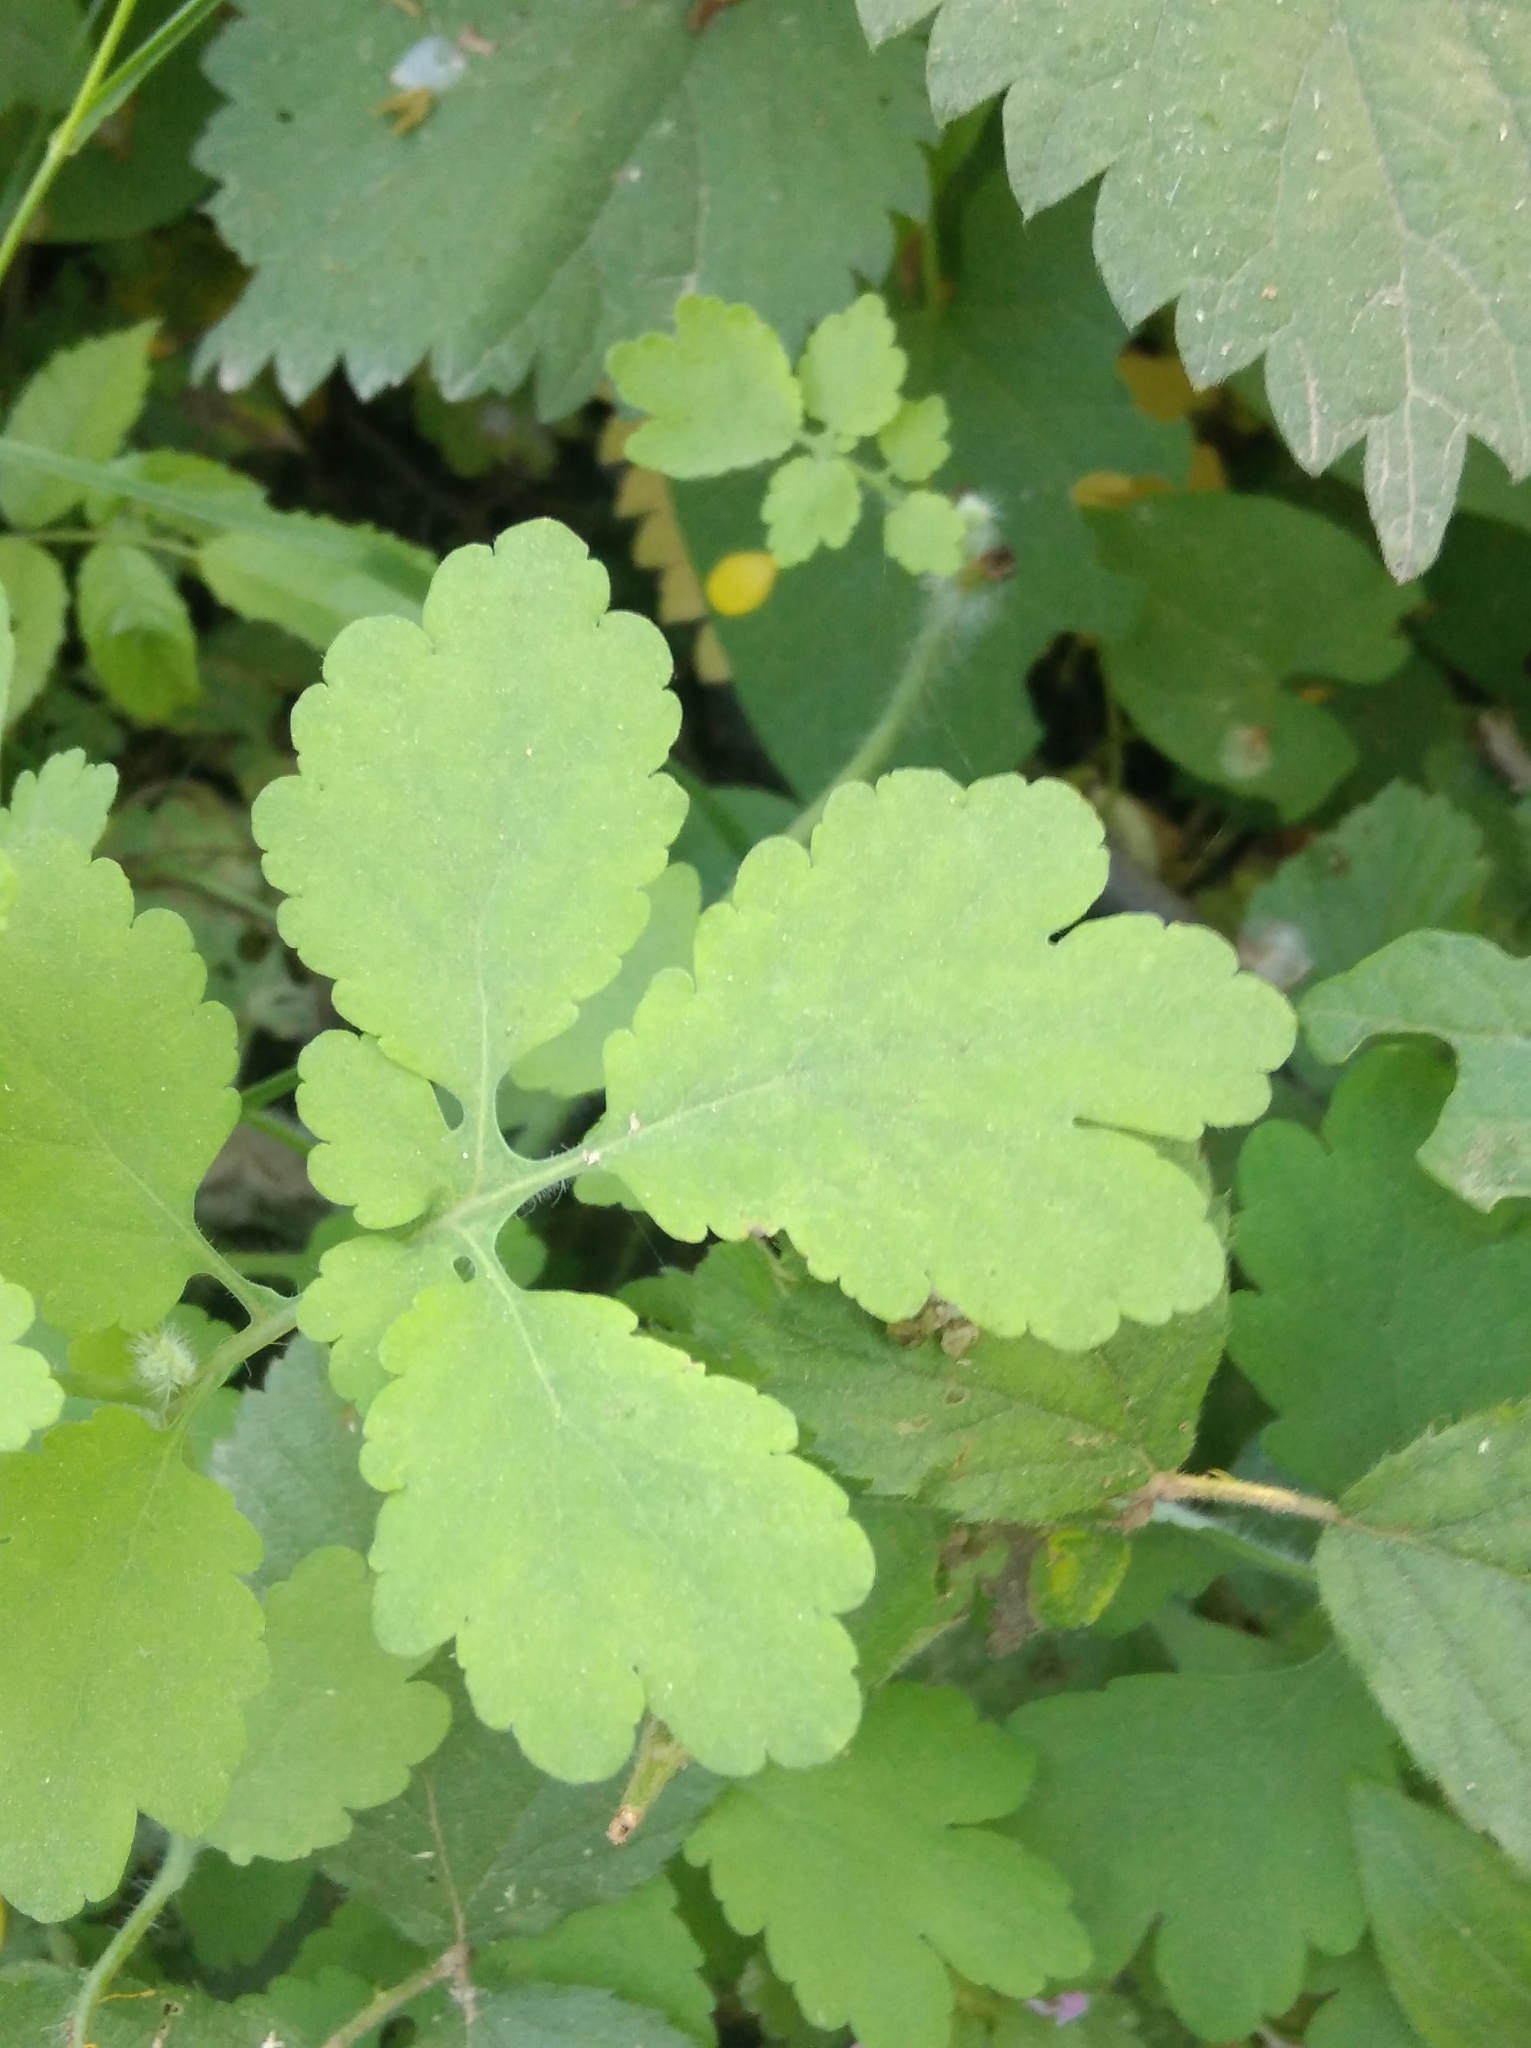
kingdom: Plantae
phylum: Tracheophyta
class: Magnoliopsida
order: Ranunculales
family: Papaveraceae
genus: Chelidonium
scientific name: Chelidonium majus
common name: Greater celandine
